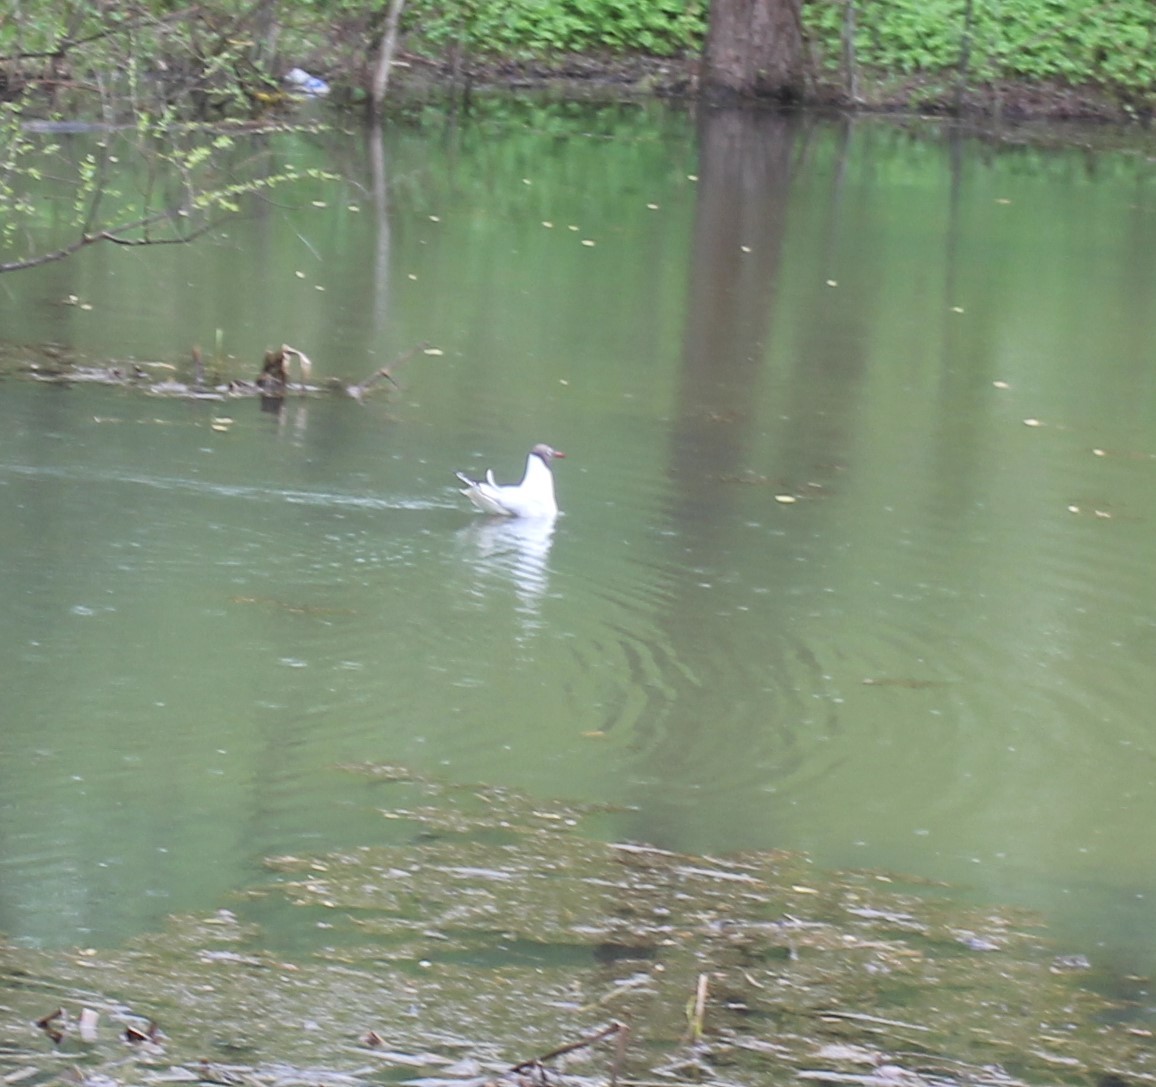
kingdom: Animalia
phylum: Chordata
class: Aves
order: Charadriiformes
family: Laridae
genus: Chroicocephalus
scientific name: Chroicocephalus ridibundus
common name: Black-headed gull
